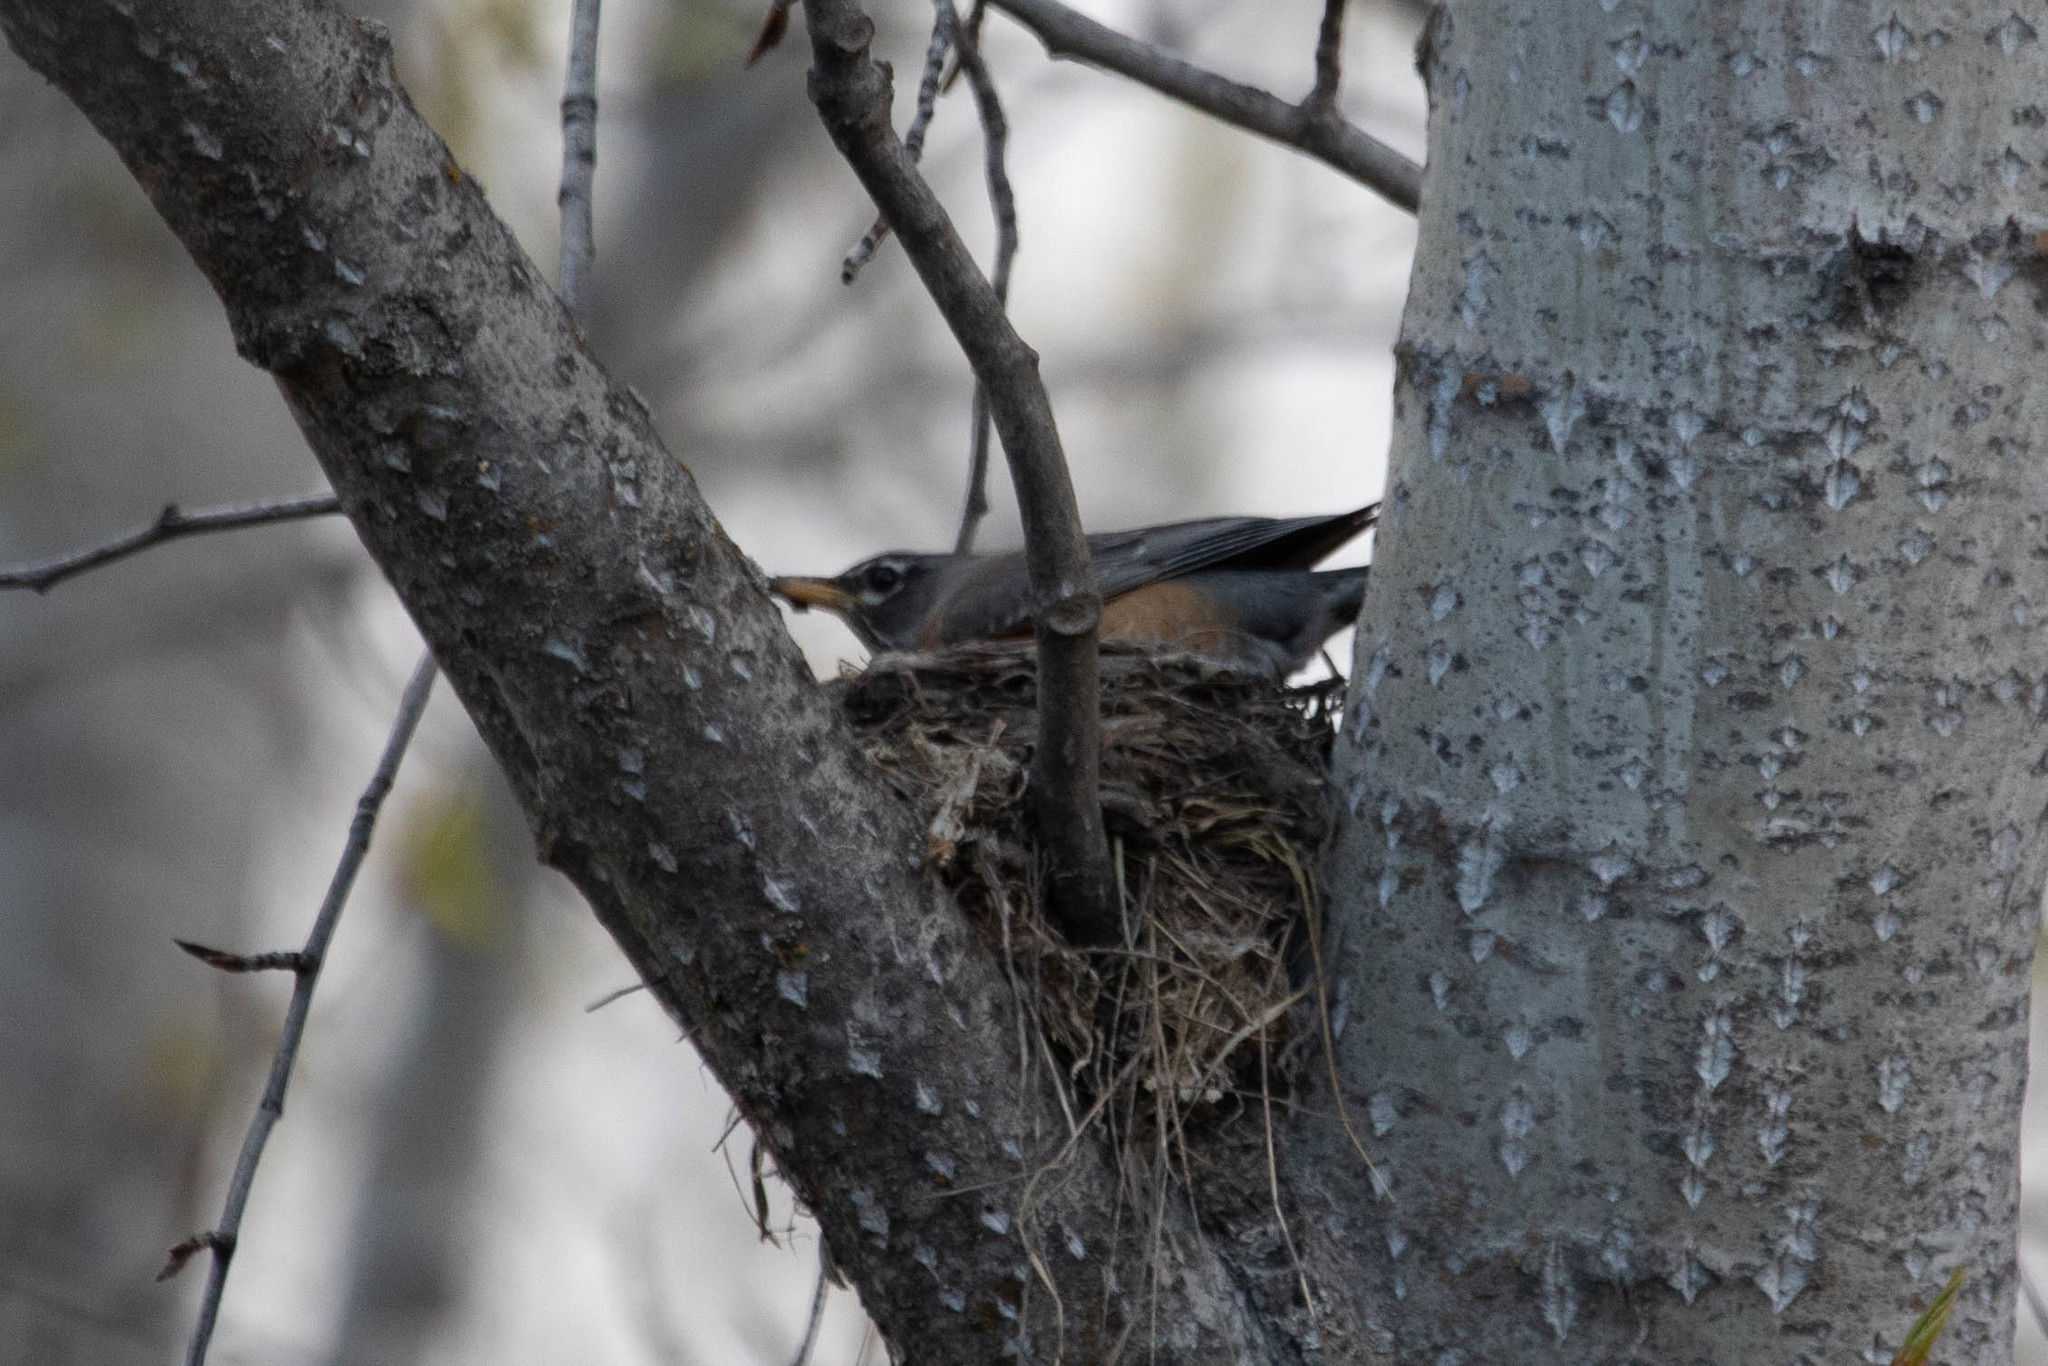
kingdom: Animalia
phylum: Chordata
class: Aves
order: Passeriformes
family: Turdidae
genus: Turdus
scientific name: Turdus migratorius
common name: American robin
